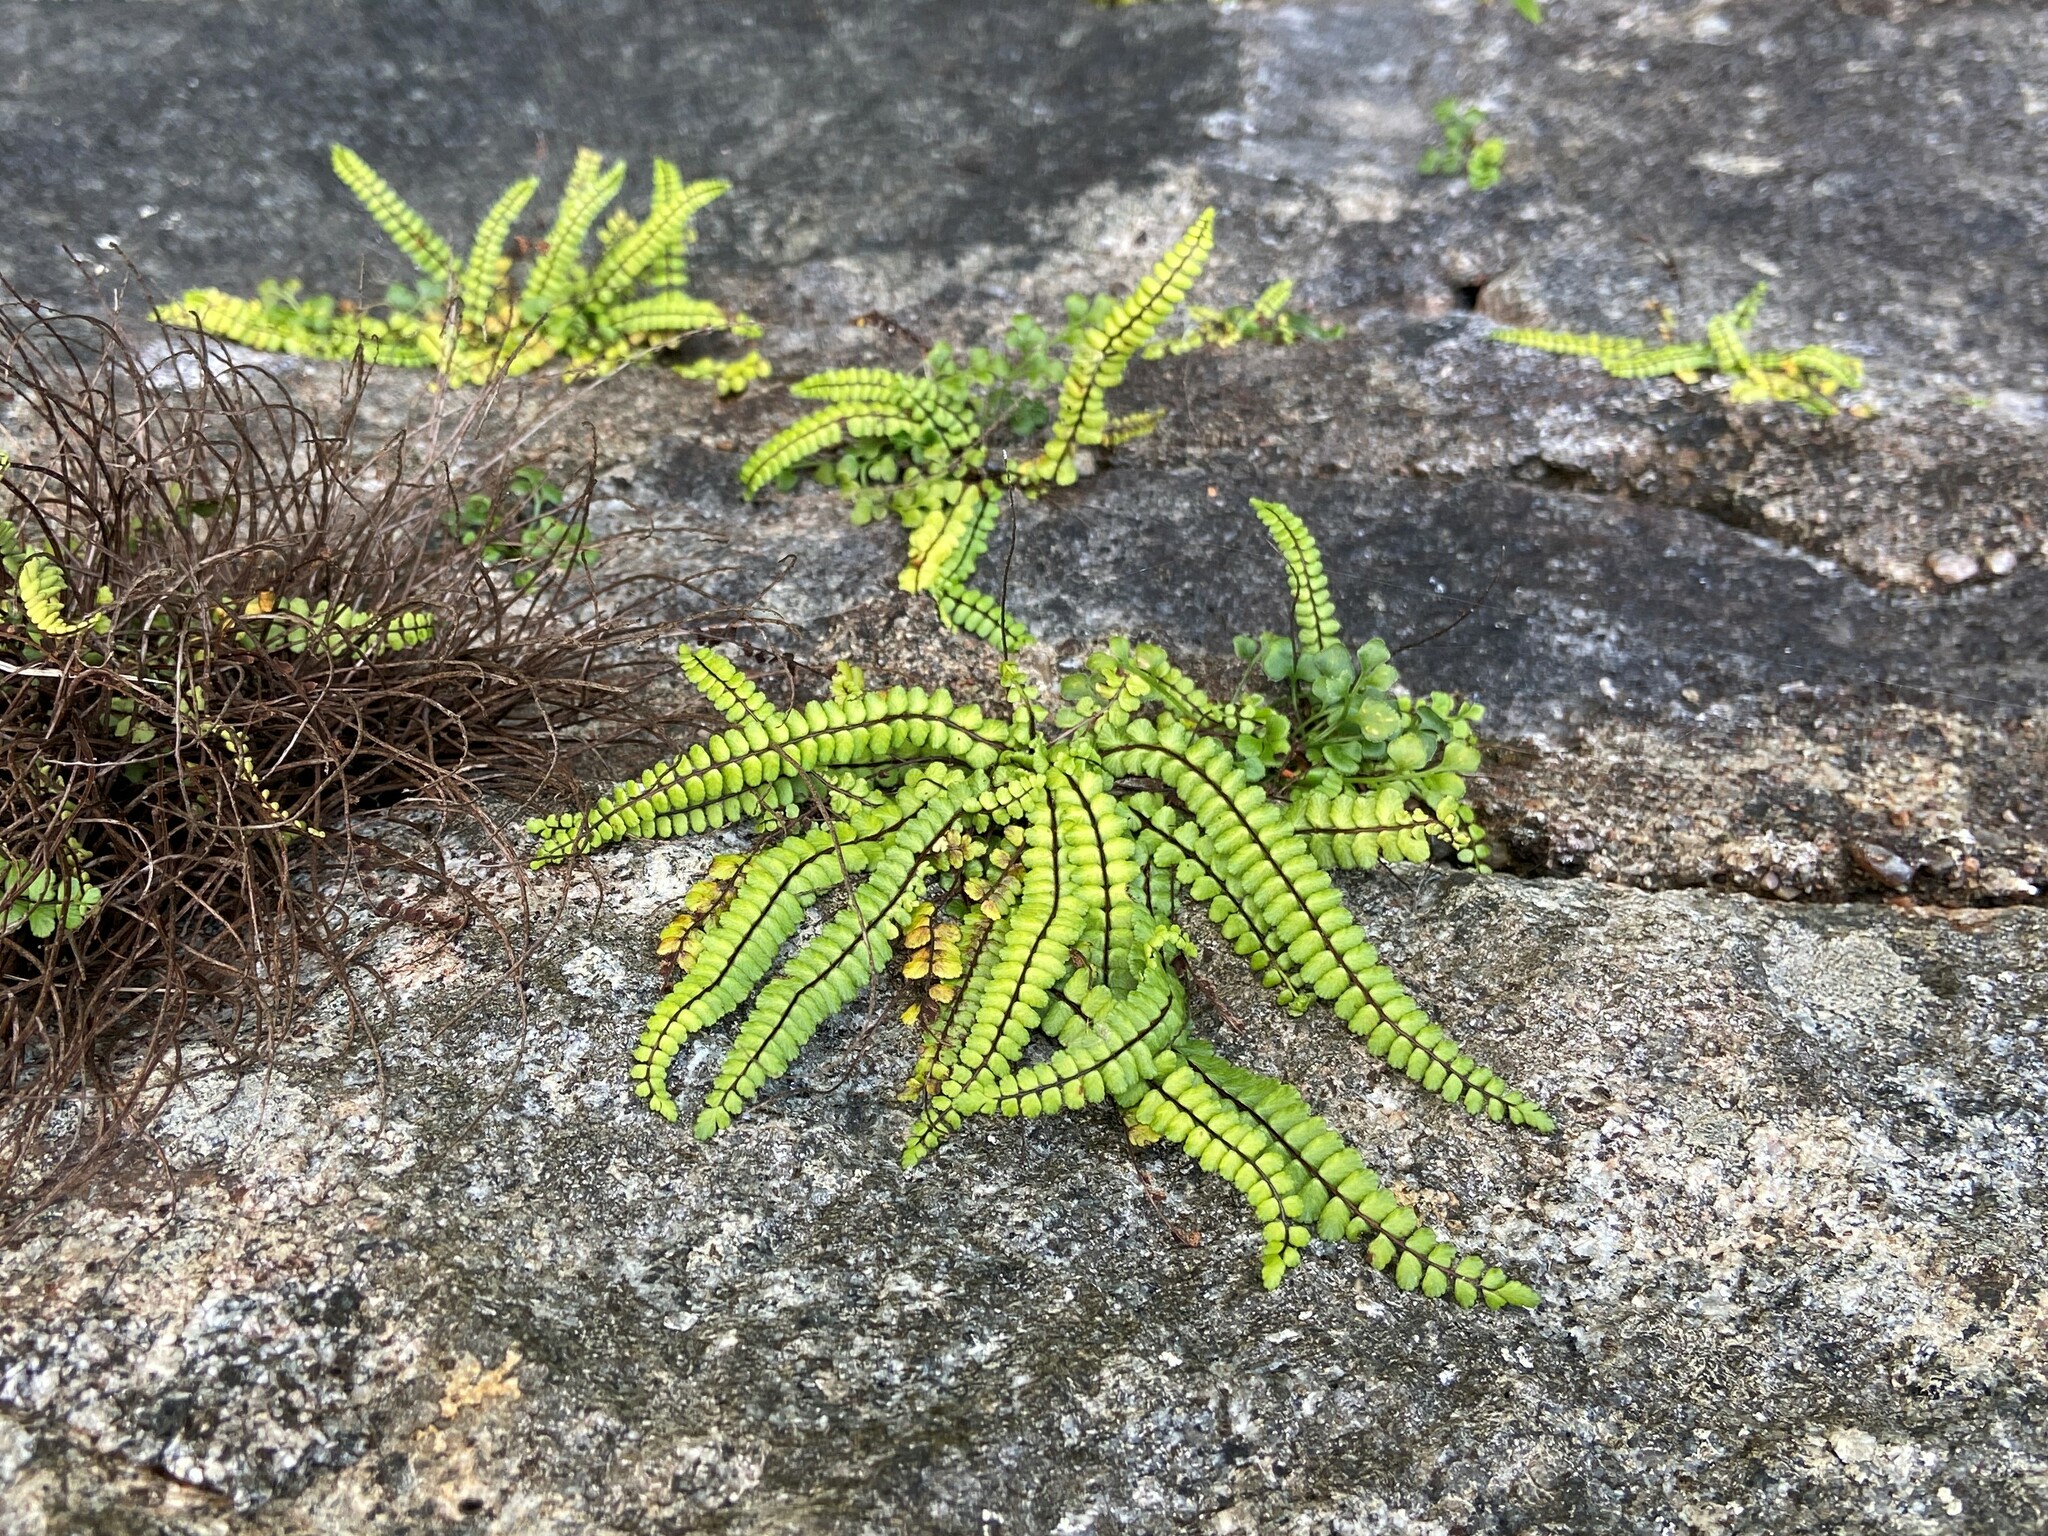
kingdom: Plantae
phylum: Tracheophyta
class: Polypodiopsida
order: Polypodiales
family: Aspleniaceae
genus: Asplenium
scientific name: Asplenium trichomanes
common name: Maidenhair spleenwort
